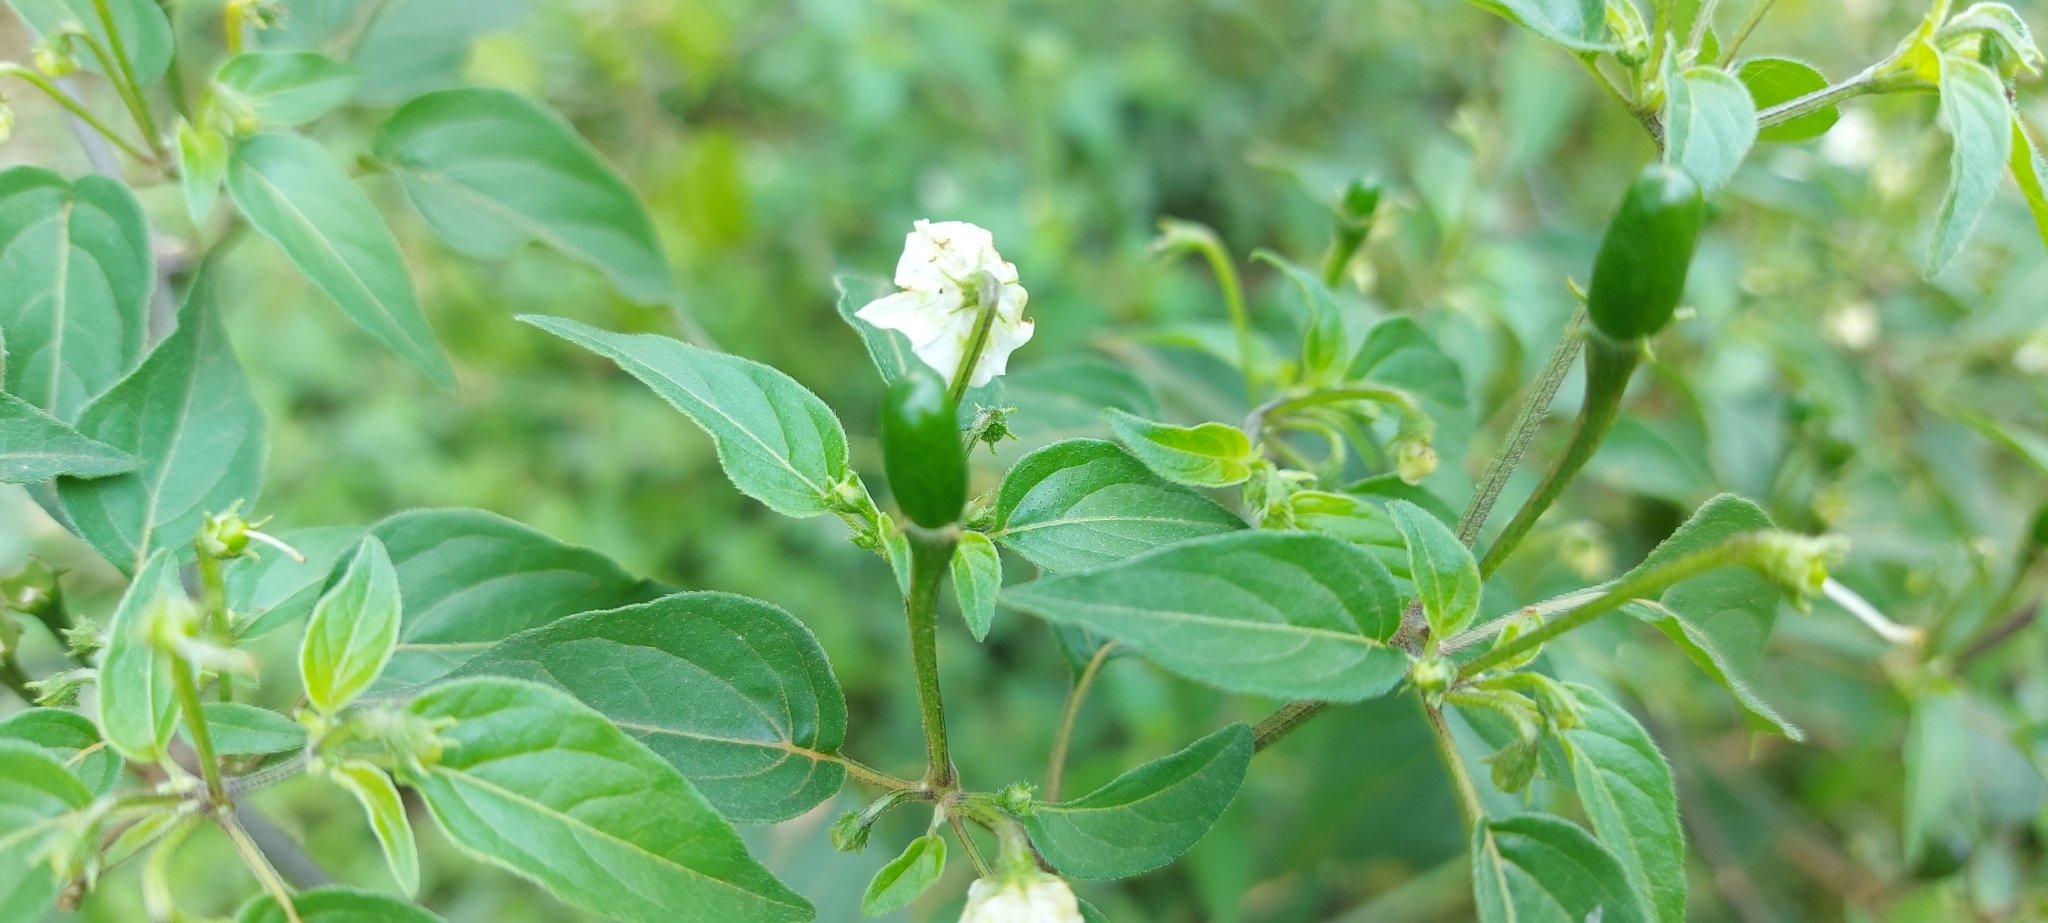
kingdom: Plantae
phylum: Tracheophyta
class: Magnoliopsida
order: Solanales
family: Solanaceae
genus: Capsicum
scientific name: Capsicum baccatum
